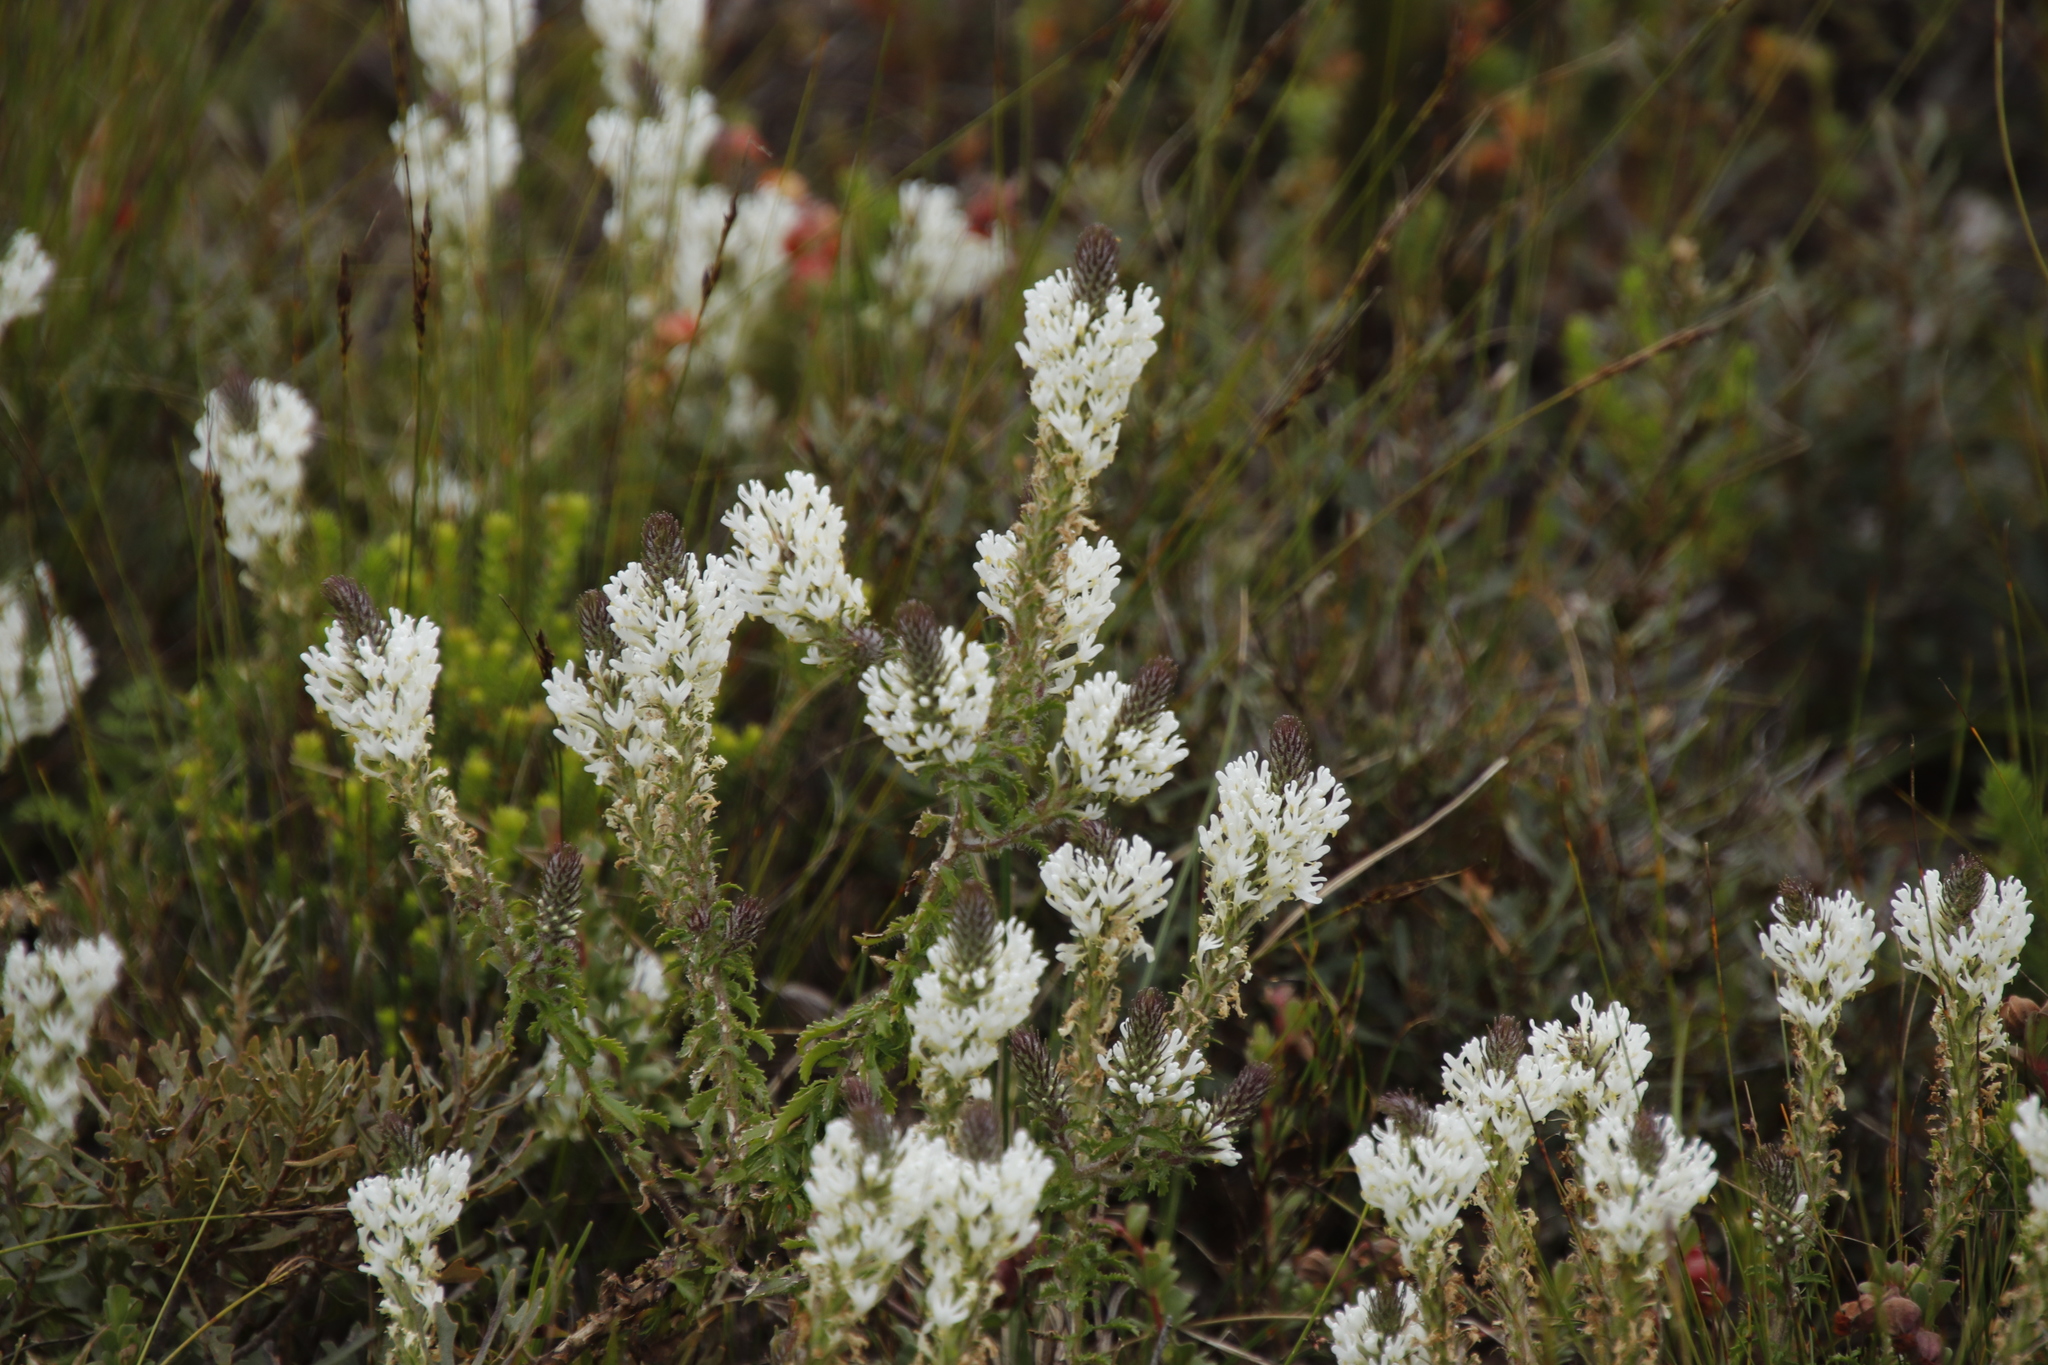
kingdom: Plantae
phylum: Tracheophyta
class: Magnoliopsida
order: Lamiales
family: Scrophulariaceae
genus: Dischisma
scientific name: Dischisma ciliatum
